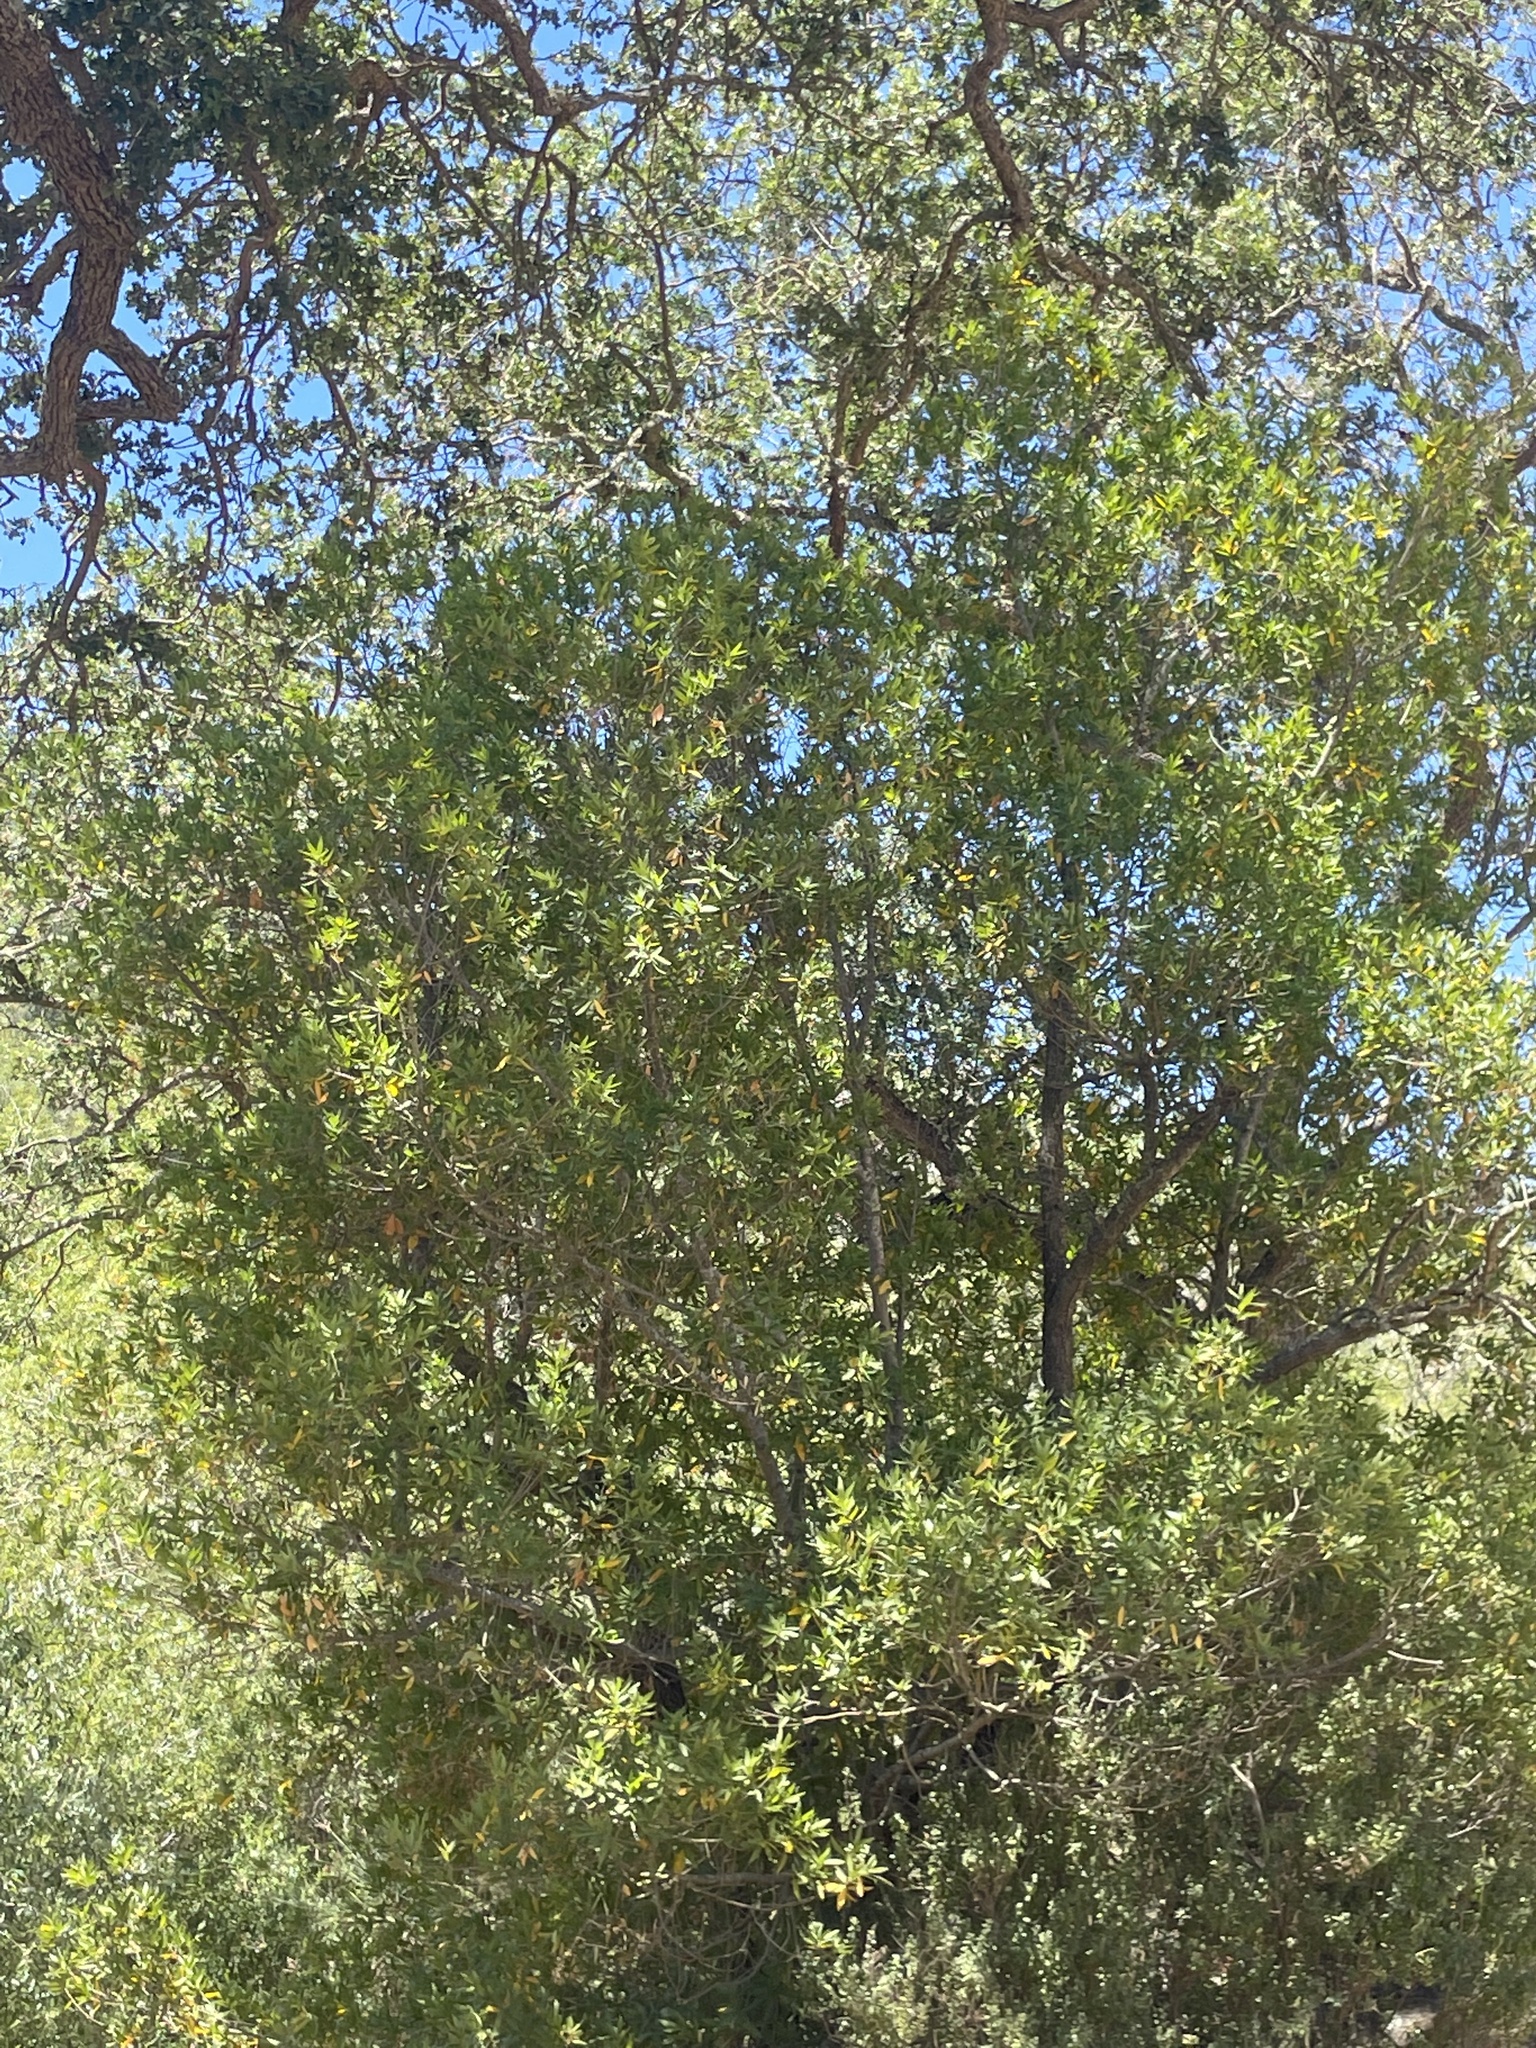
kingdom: Plantae
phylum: Tracheophyta
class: Magnoliopsida
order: Laurales
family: Lauraceae
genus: Umbellularia
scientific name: Umbellularia californica
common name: California bay
